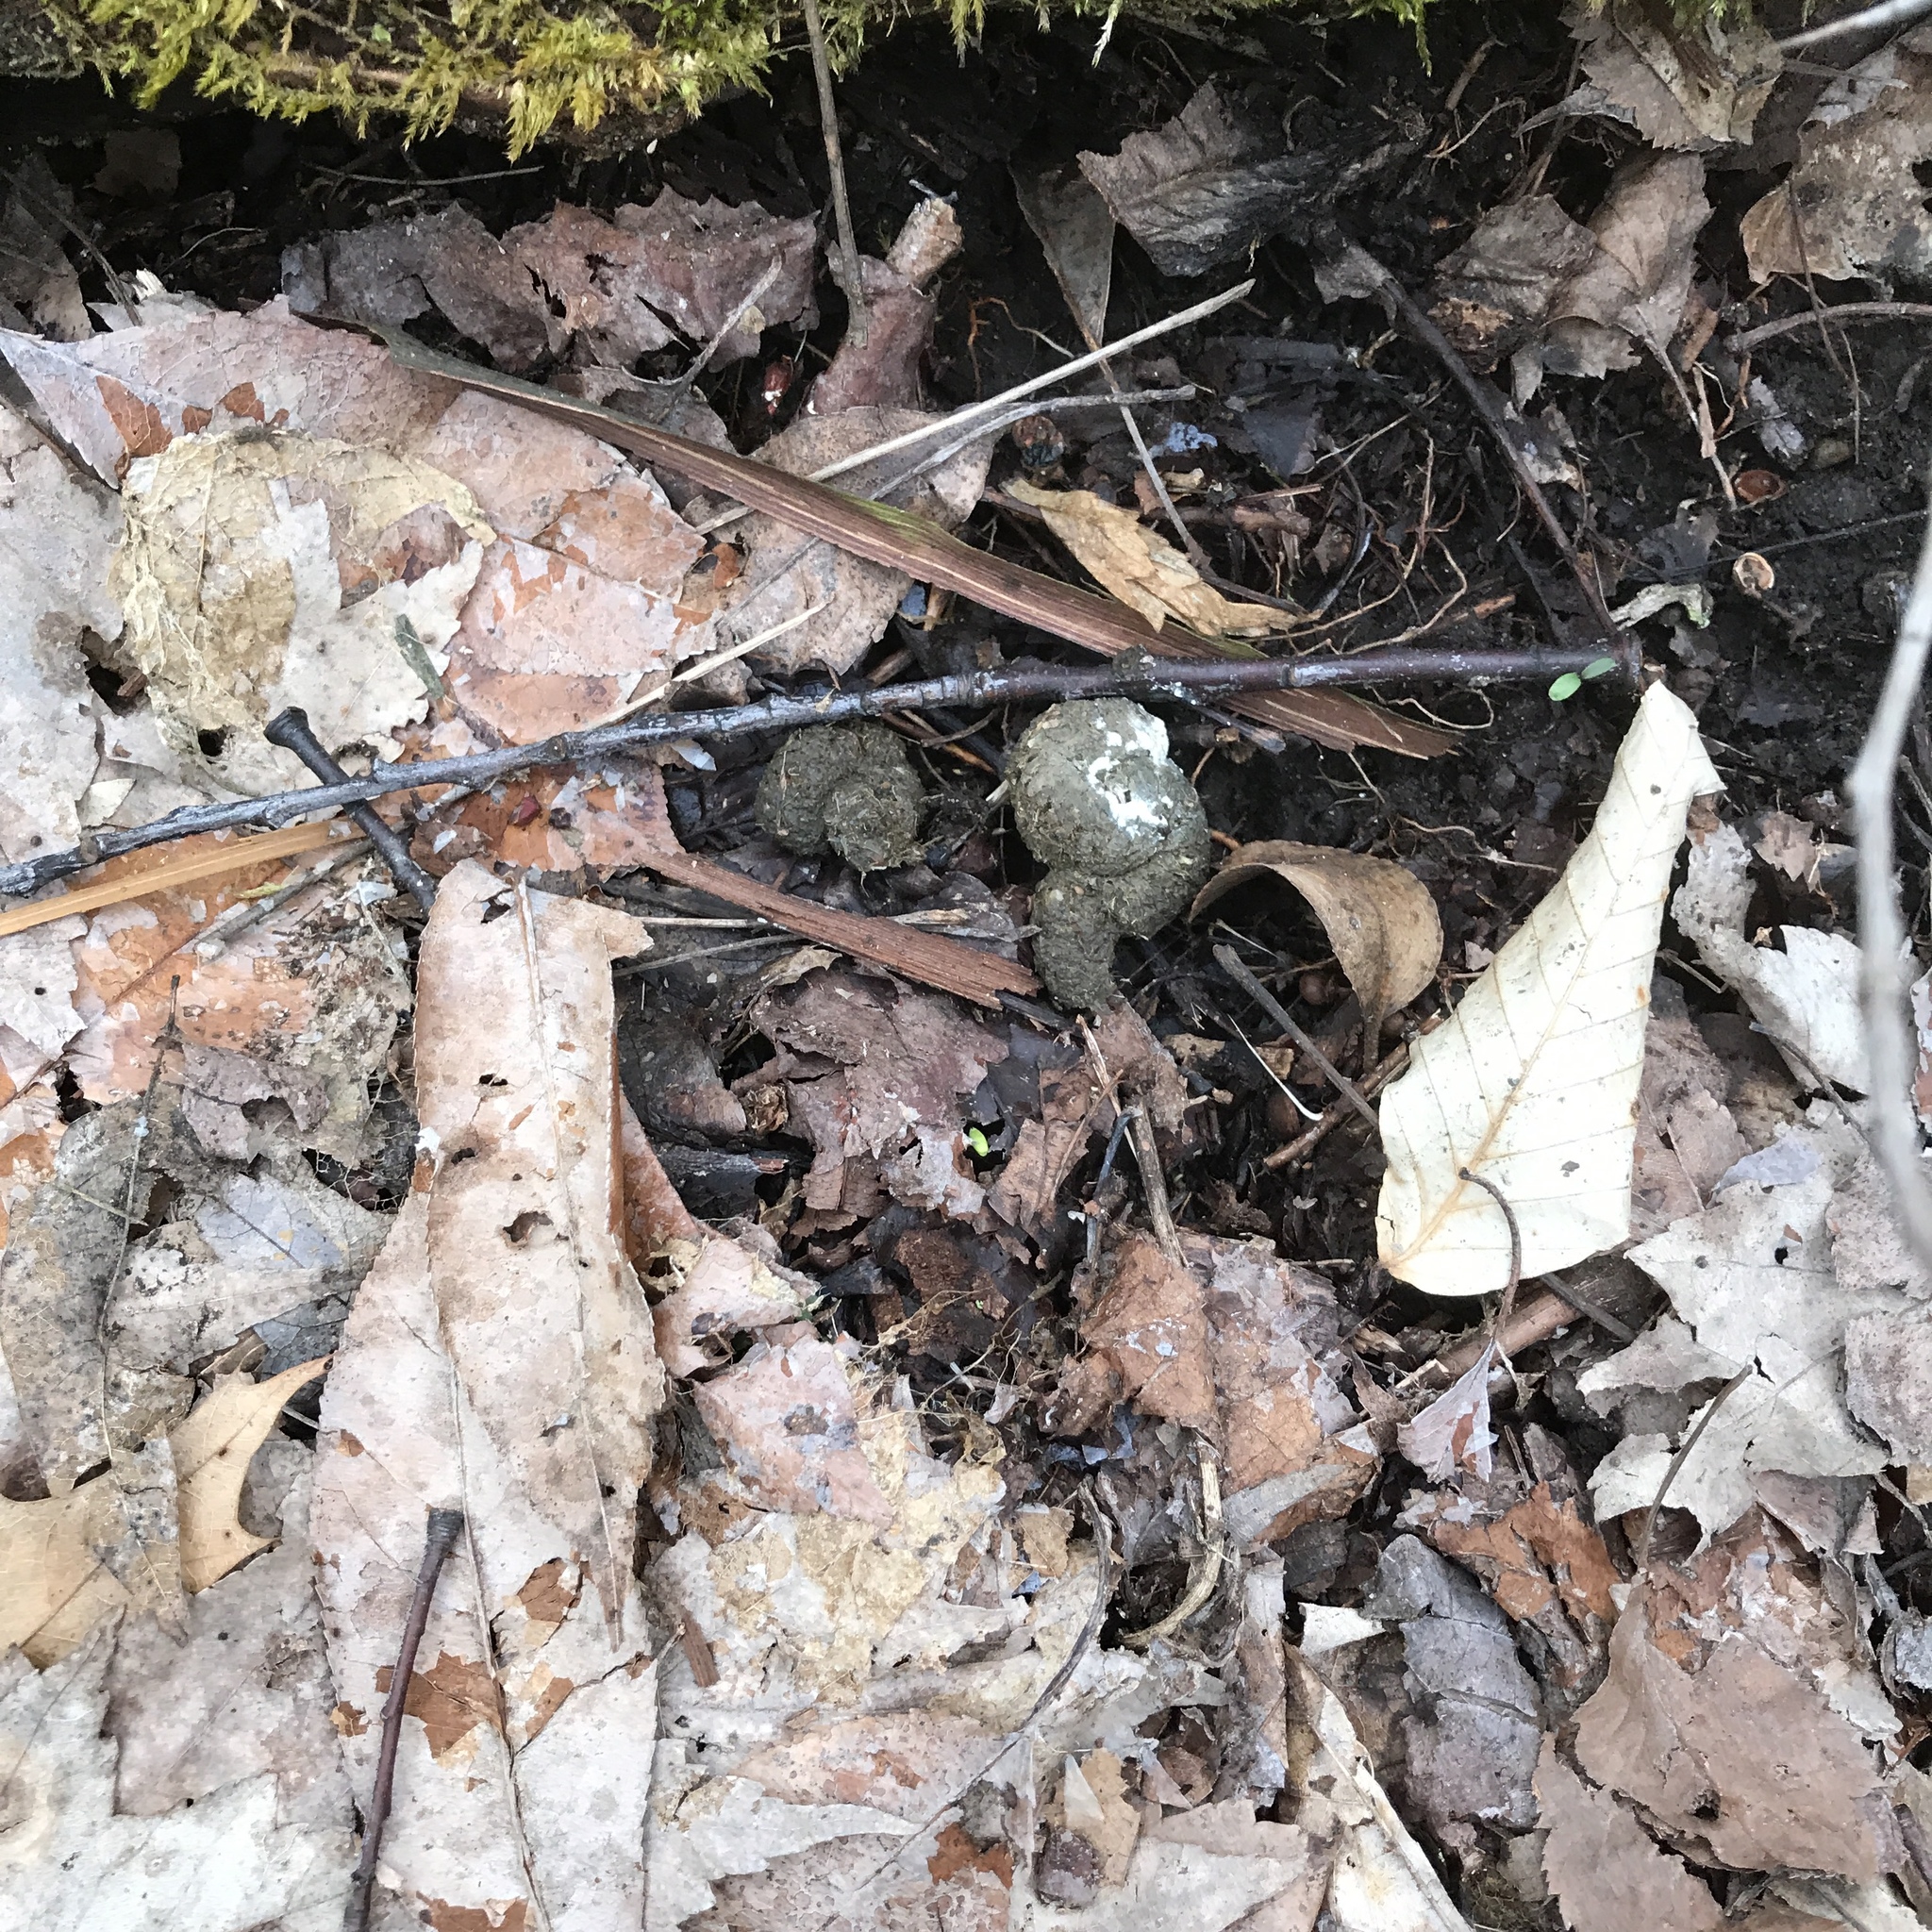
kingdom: Animalia
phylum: Chordata
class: Aves
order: Galliformes
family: Phasianidae
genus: Meleagris
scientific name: Meleagris gallopavo
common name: Wild turkey
